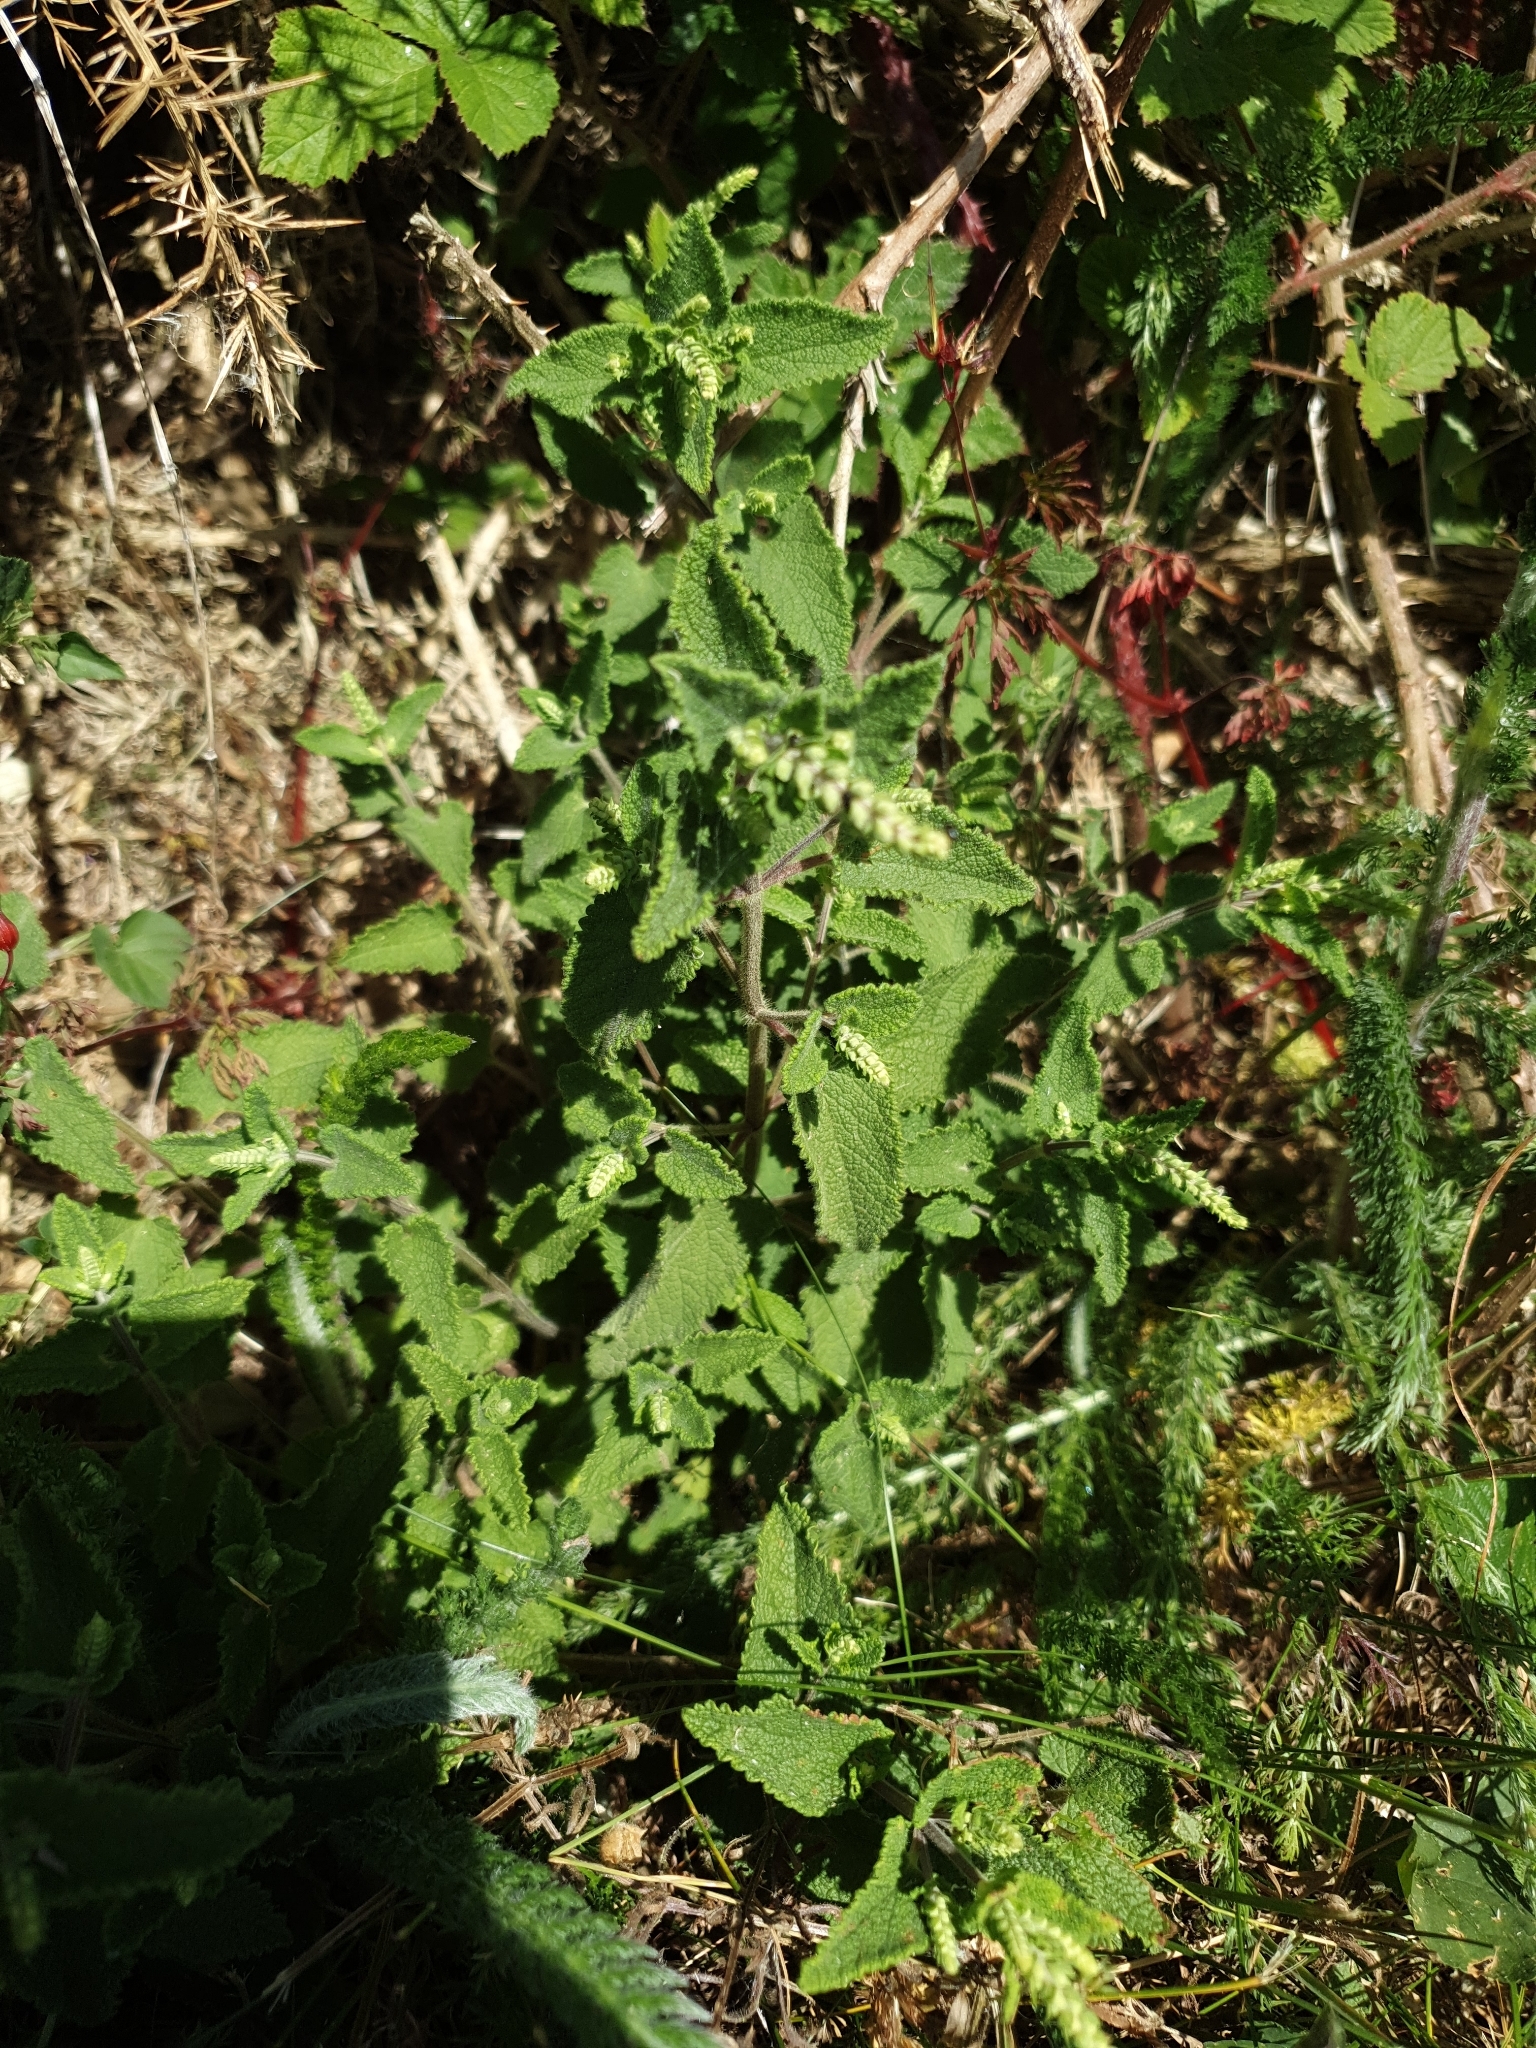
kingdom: Plantae
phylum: Tracheophyta
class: Magnoliopsida
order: Lamiales
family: Lamiaceae
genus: Teucrium
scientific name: Teucrium scorodonia
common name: Woodland germander
